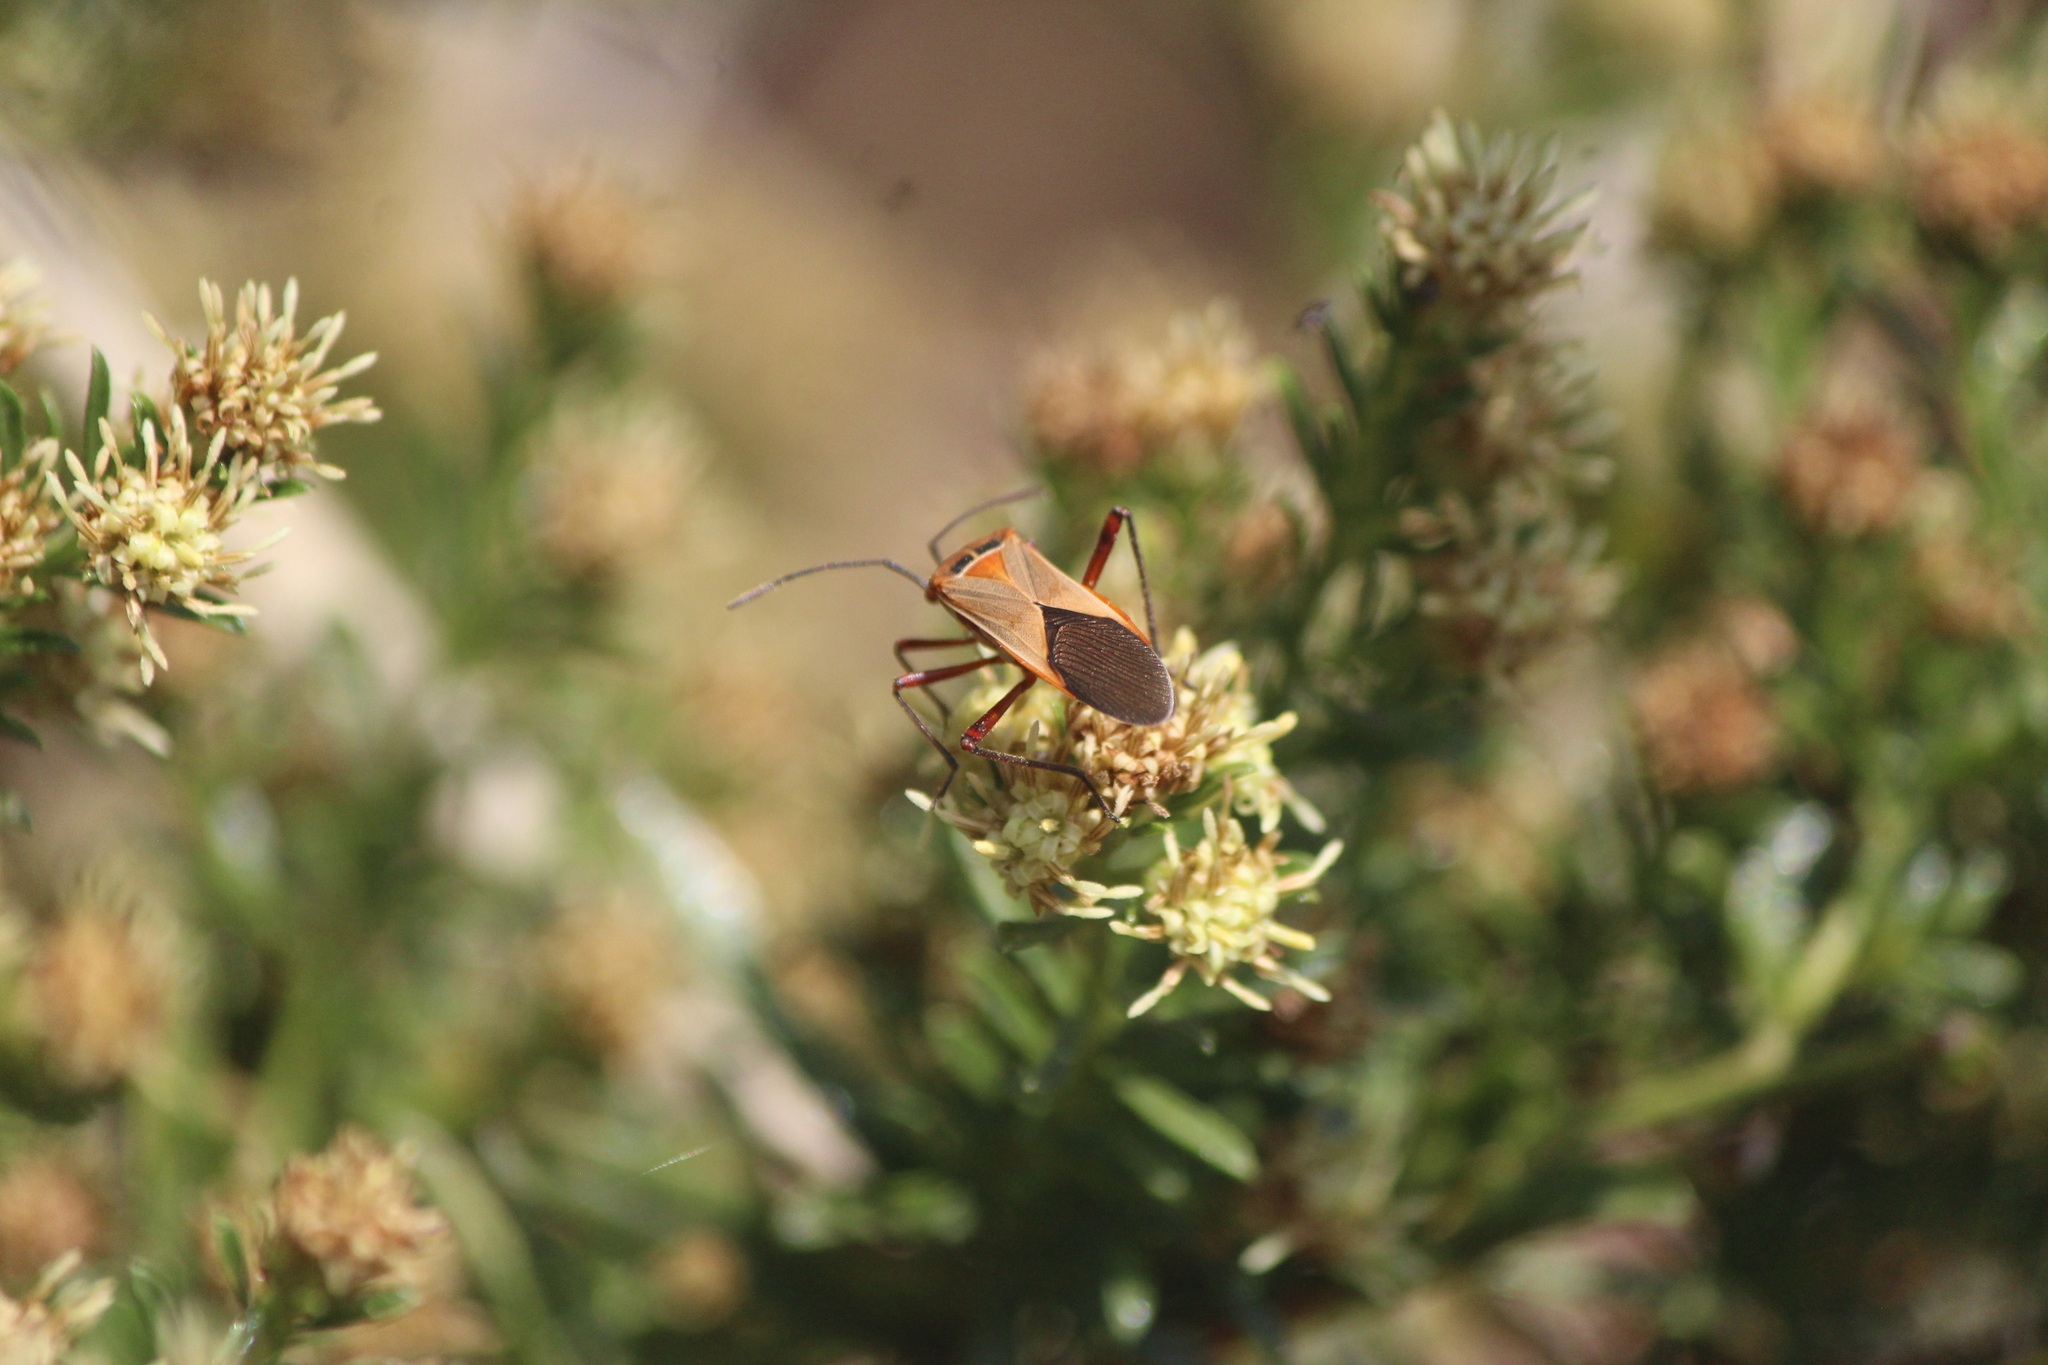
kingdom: Animalia
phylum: Arthropoda
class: Insecta
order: Hemiptera
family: Coreidae
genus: Hypselonotus
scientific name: Hypselonotus interruptus
